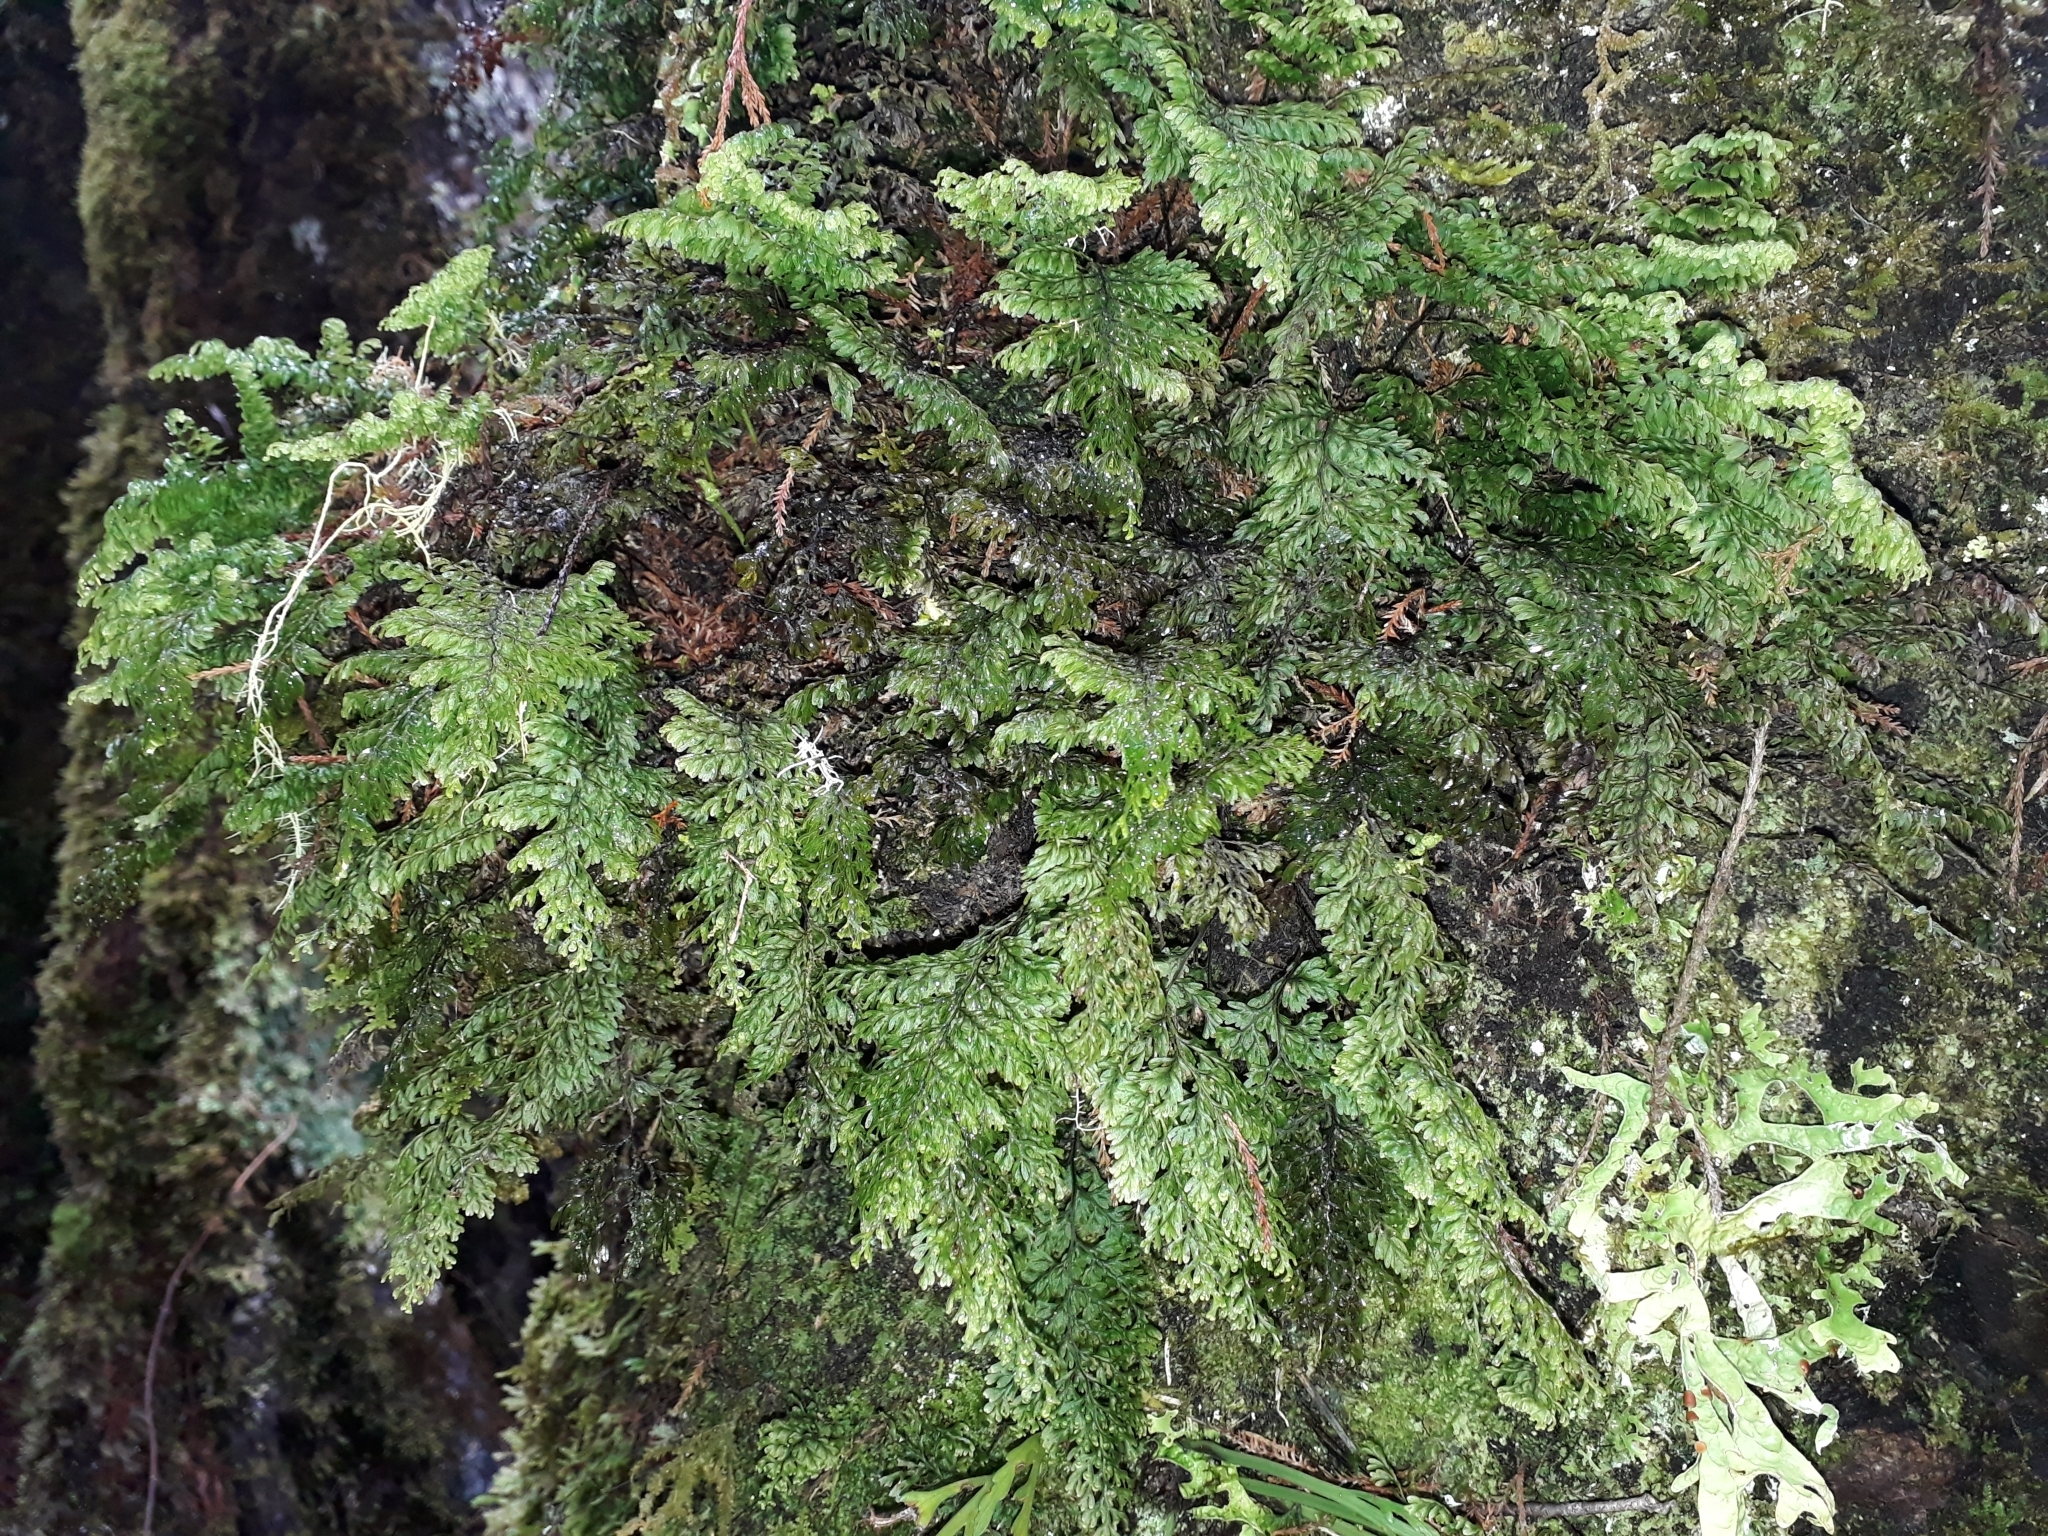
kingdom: Plantae
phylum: Tracheophyta
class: Polypodiopsida
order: Hymenophyllales
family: Hymenophyllaceae
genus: Hymenophyllum
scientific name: Hymenophyllum sanguinolentum
